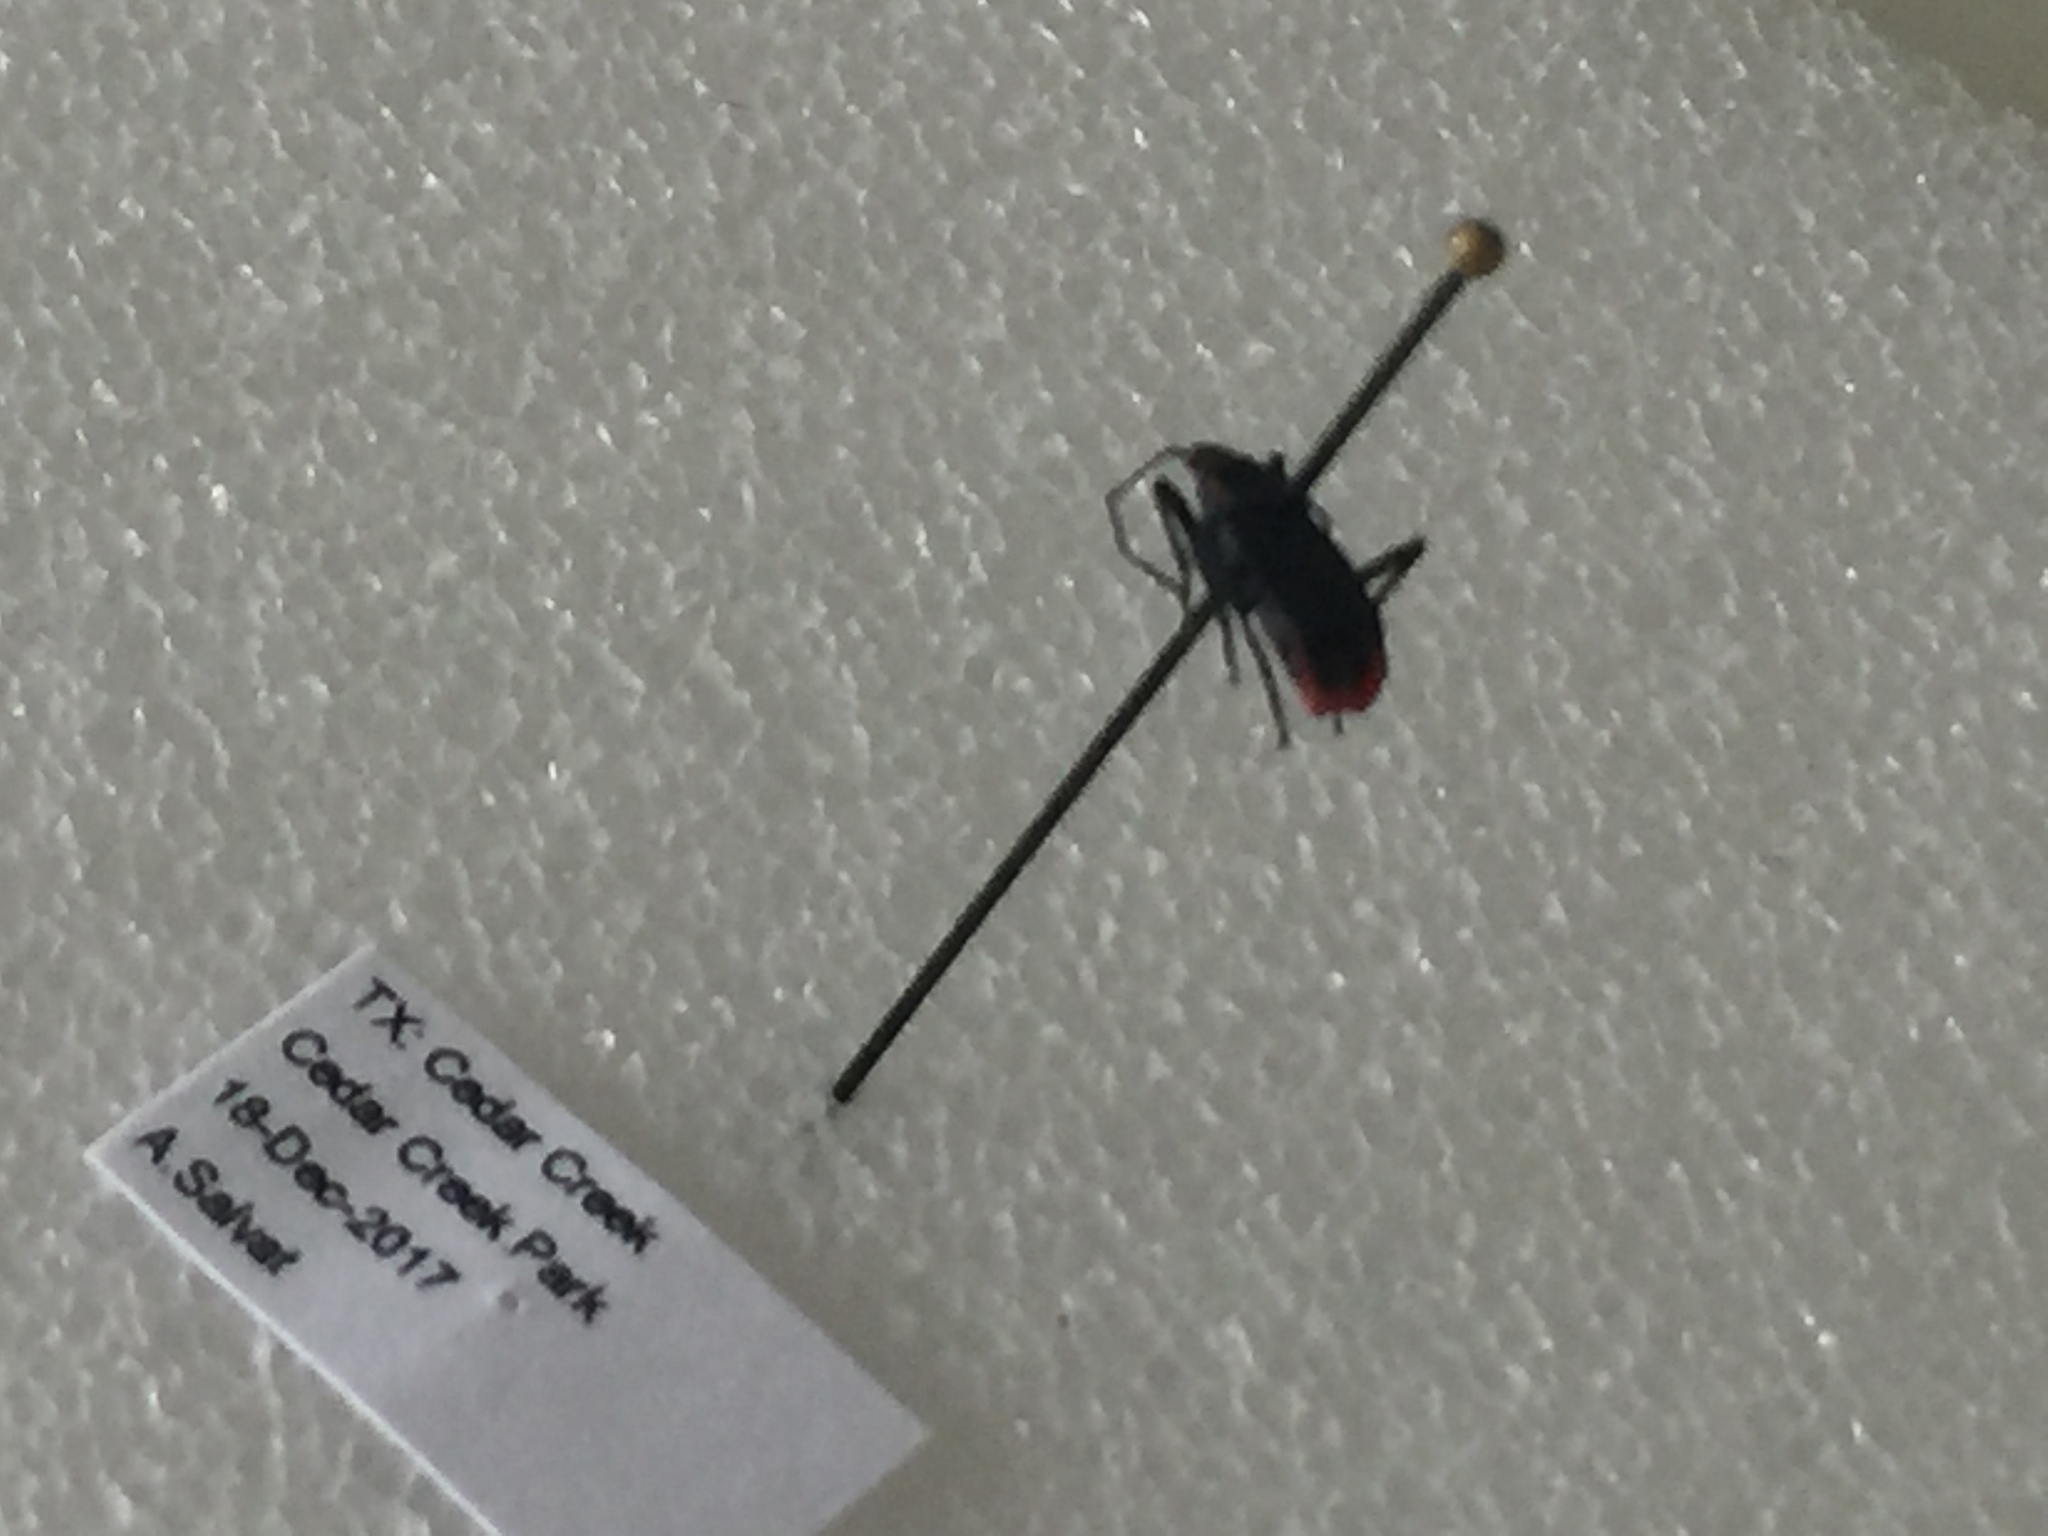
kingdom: Animalia
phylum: Arthropoda
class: Insecta
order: Hemiptera
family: Rhopalidae
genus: Jadera
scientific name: Jadera haematoloma
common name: Red-shouldered bug
